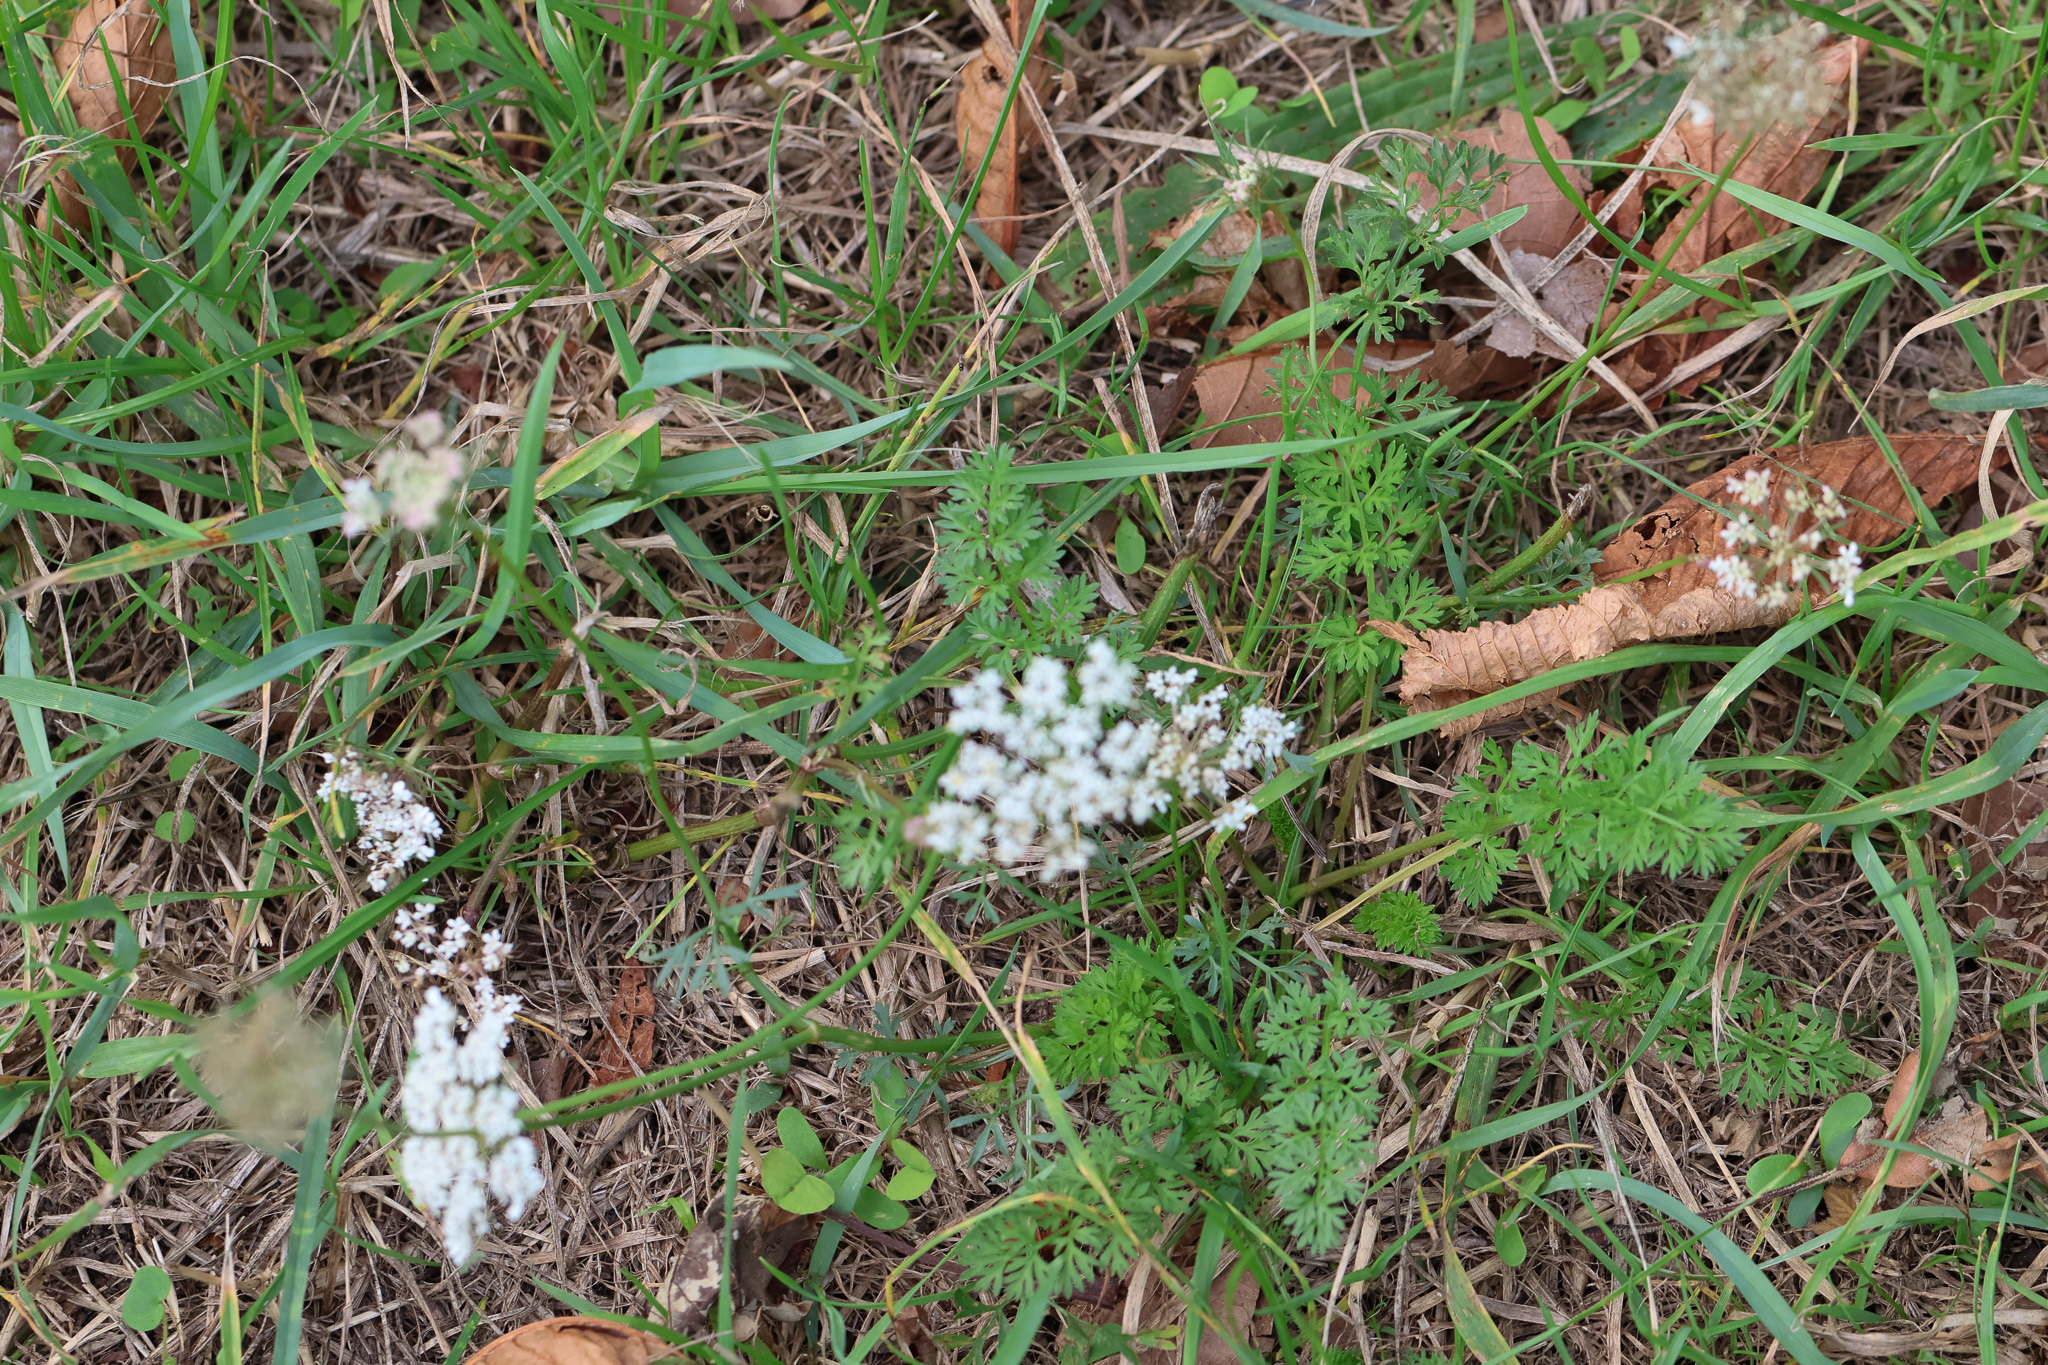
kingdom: Plantae
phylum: Tracheophyta
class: Magnoliopsida
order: Apiales
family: Apiaceae
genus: Daucus
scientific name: Daucus carota
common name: Wild carrot
